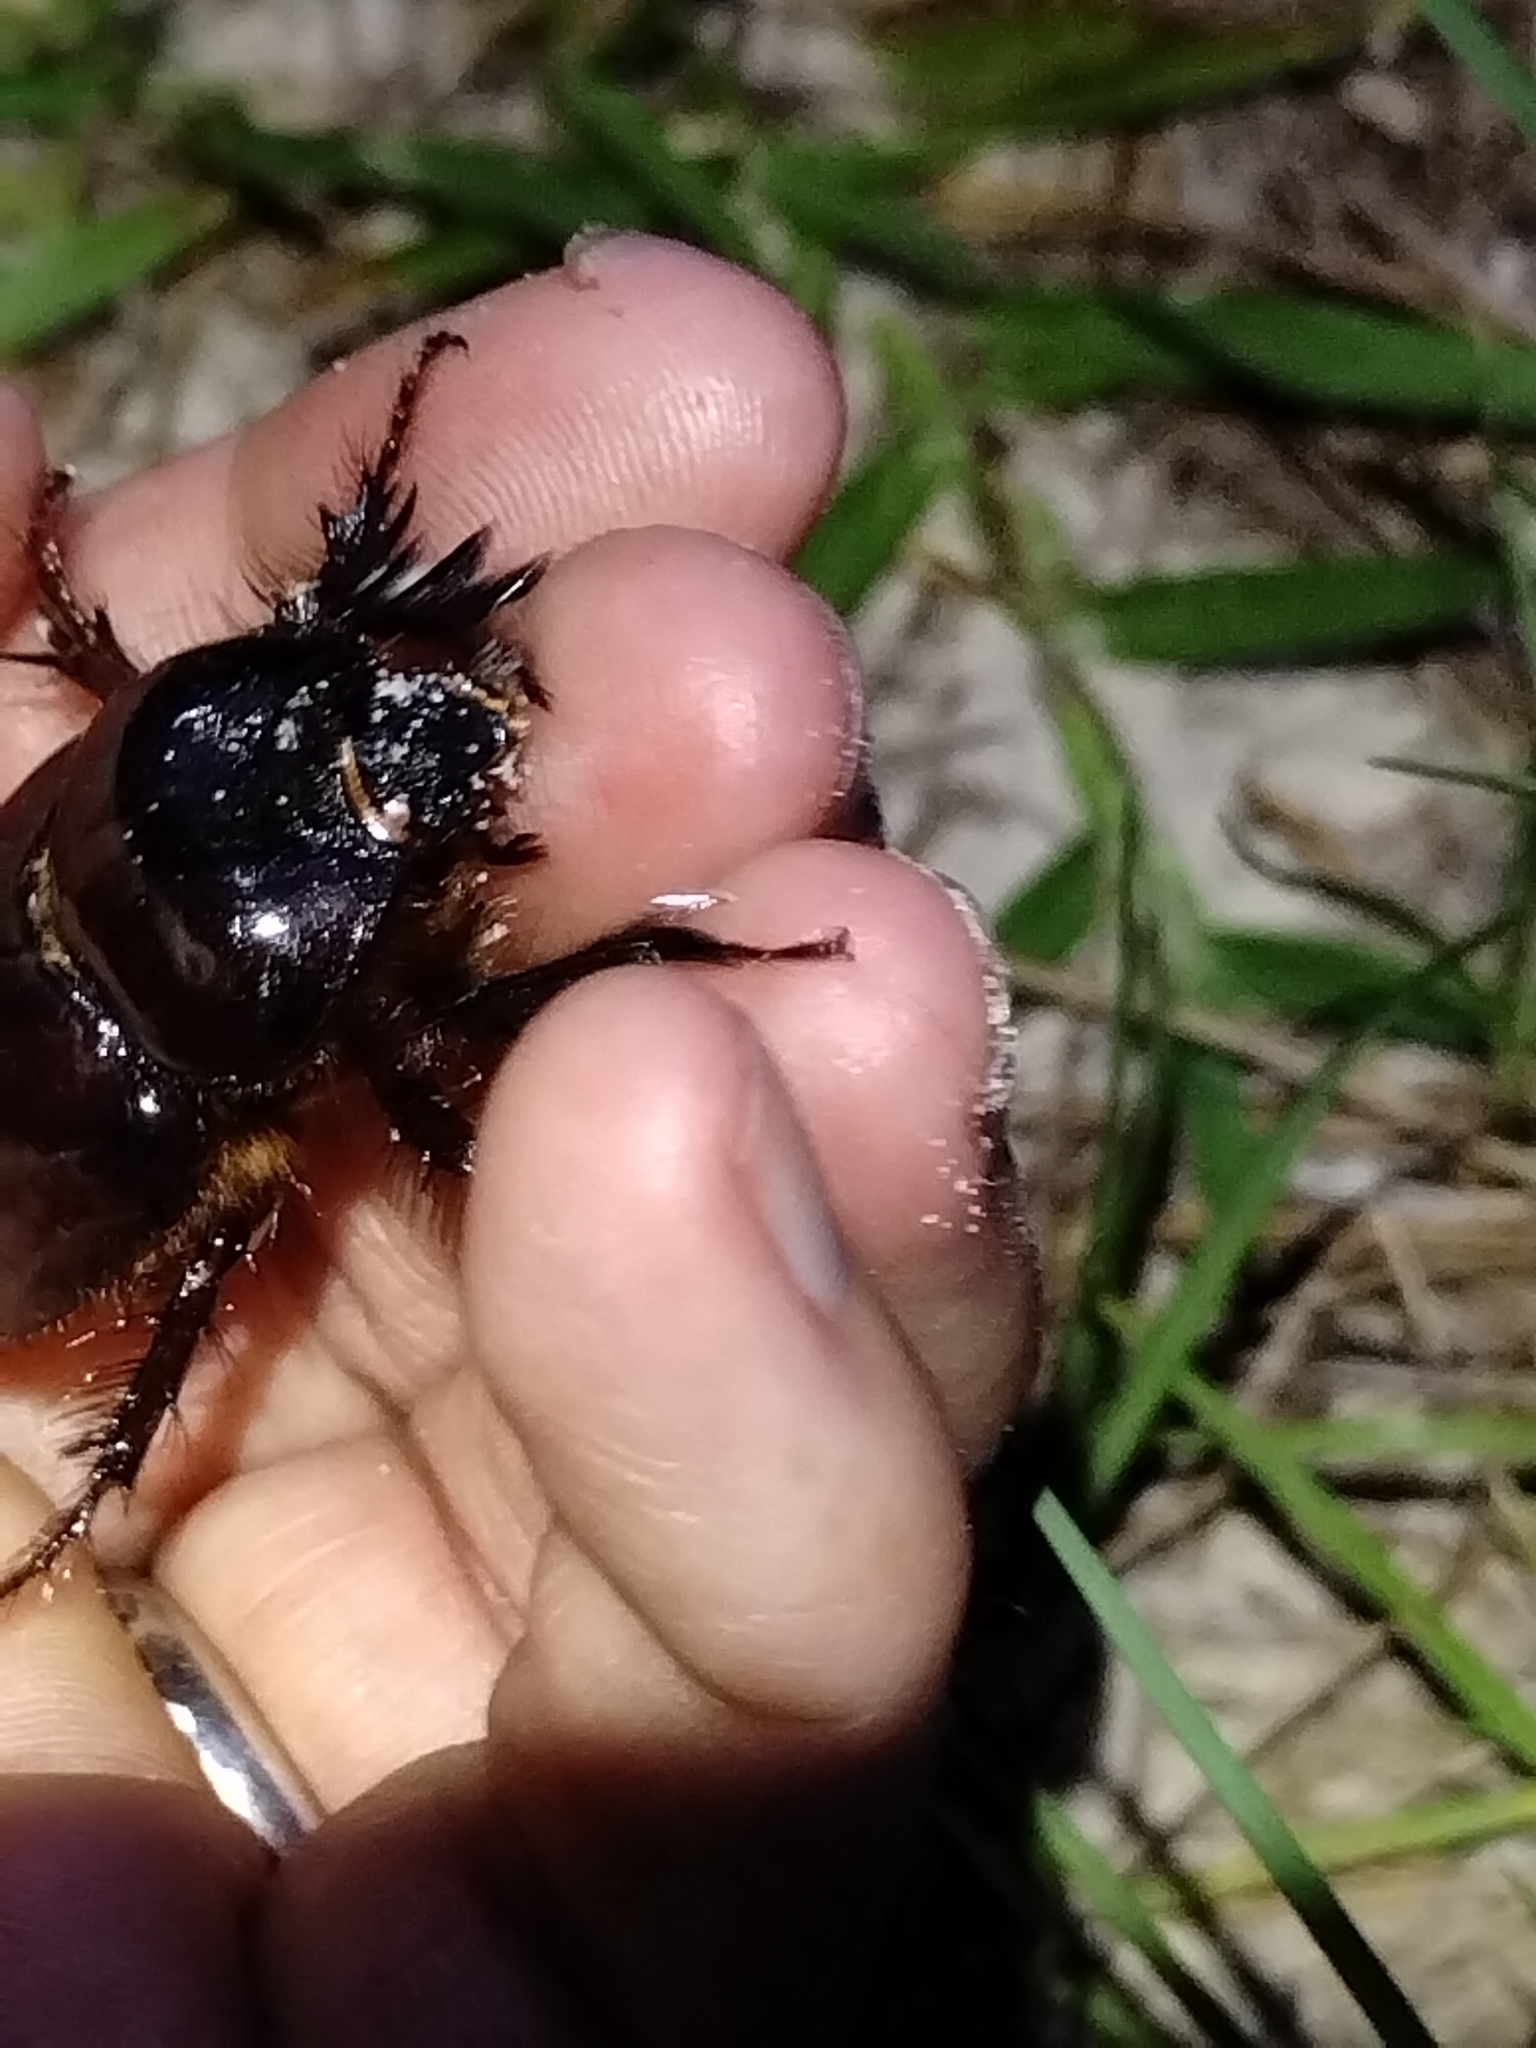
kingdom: Animalia
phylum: Arthropoda
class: Insecta
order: Coleoptera
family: Scarabaeidae
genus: Strategus
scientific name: Strategus antaeus
